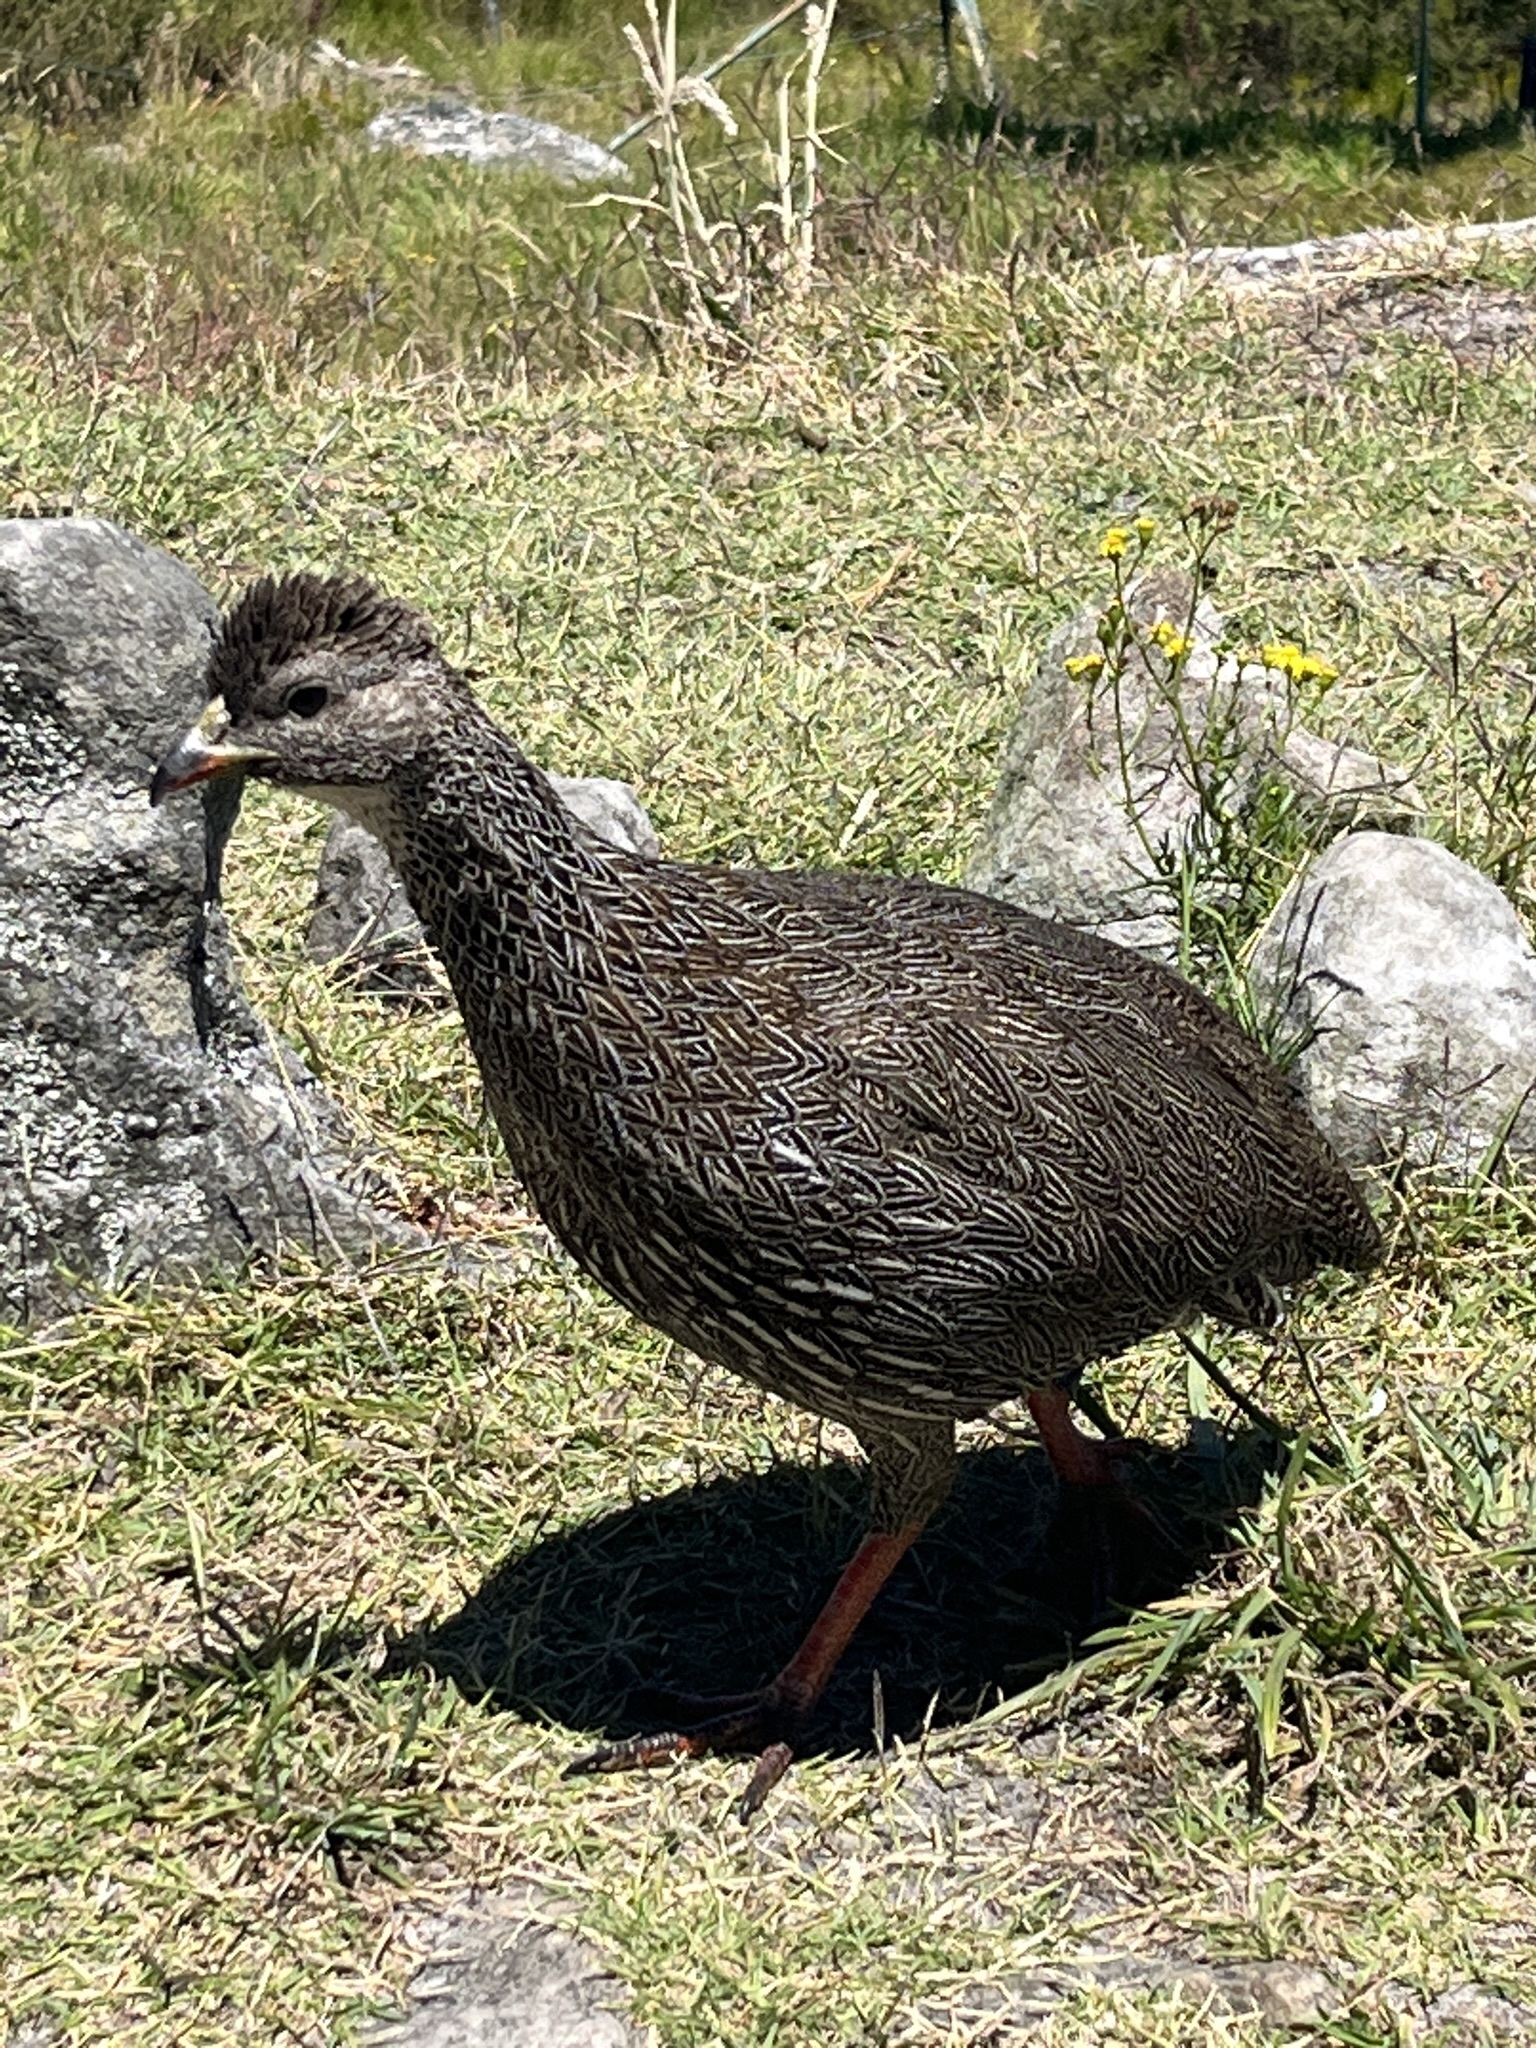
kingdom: Animalia
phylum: Chordata
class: Aves
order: Galliformes
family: Phasianidae
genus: Pternistis
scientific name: Pternistis capensis
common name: Cape spurfowl
